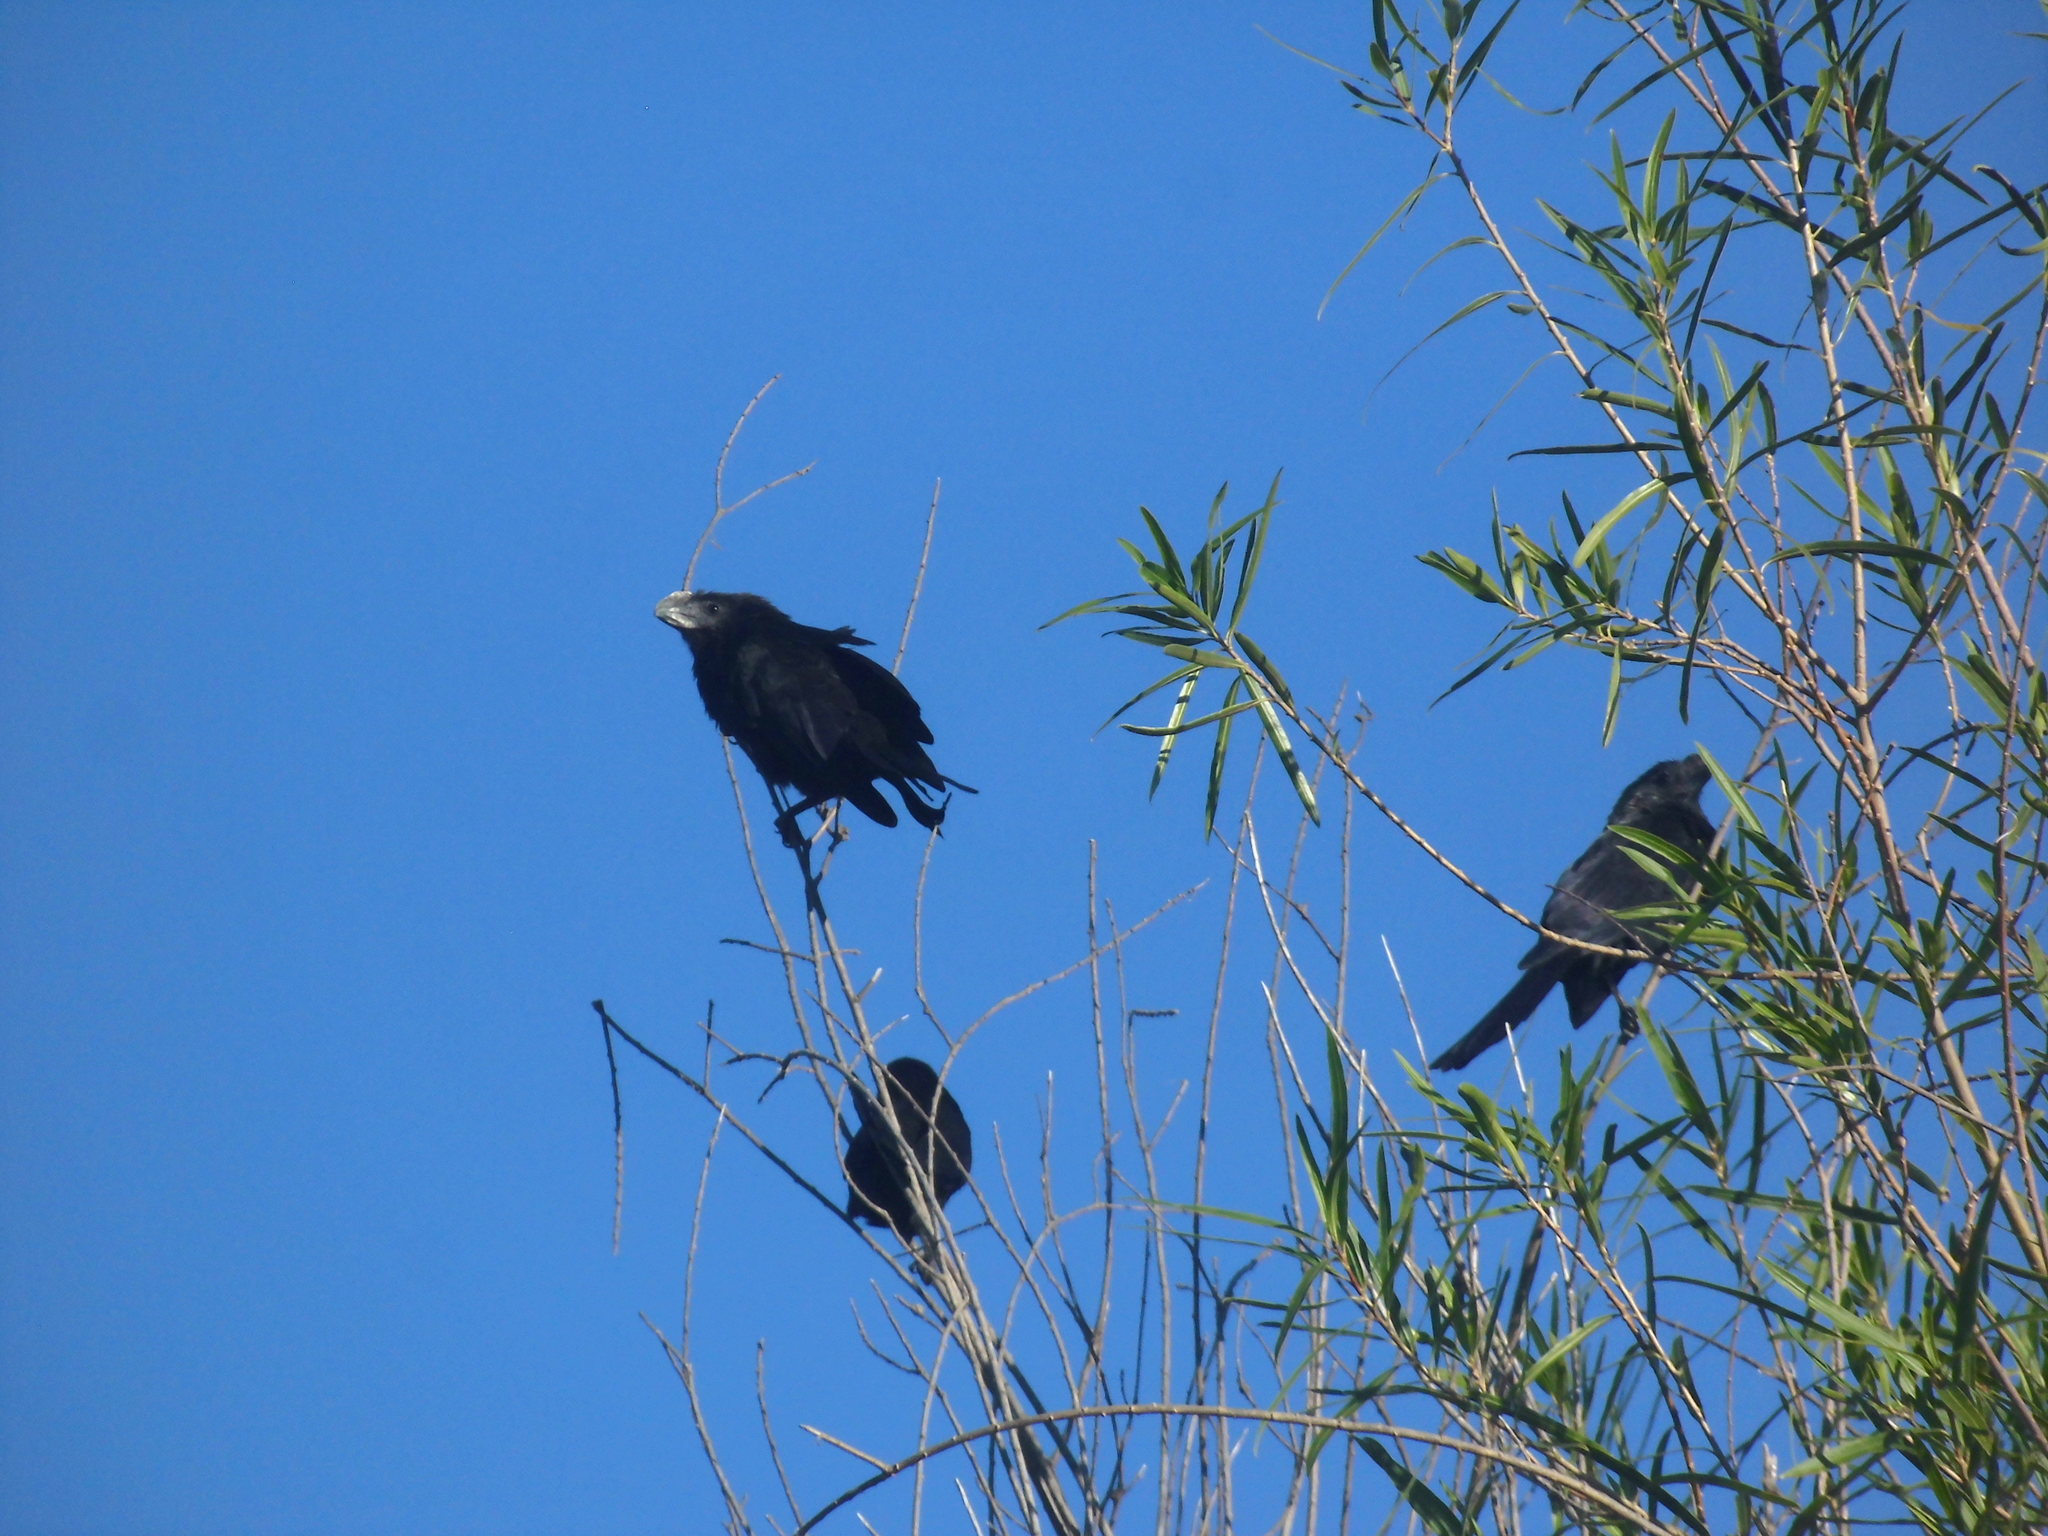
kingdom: Animalia
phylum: Chordata
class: Aves
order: Cuculiformes
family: Cuculidae
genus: Crotophaga
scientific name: Crotophaga ani
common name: Smooth-billed ani
